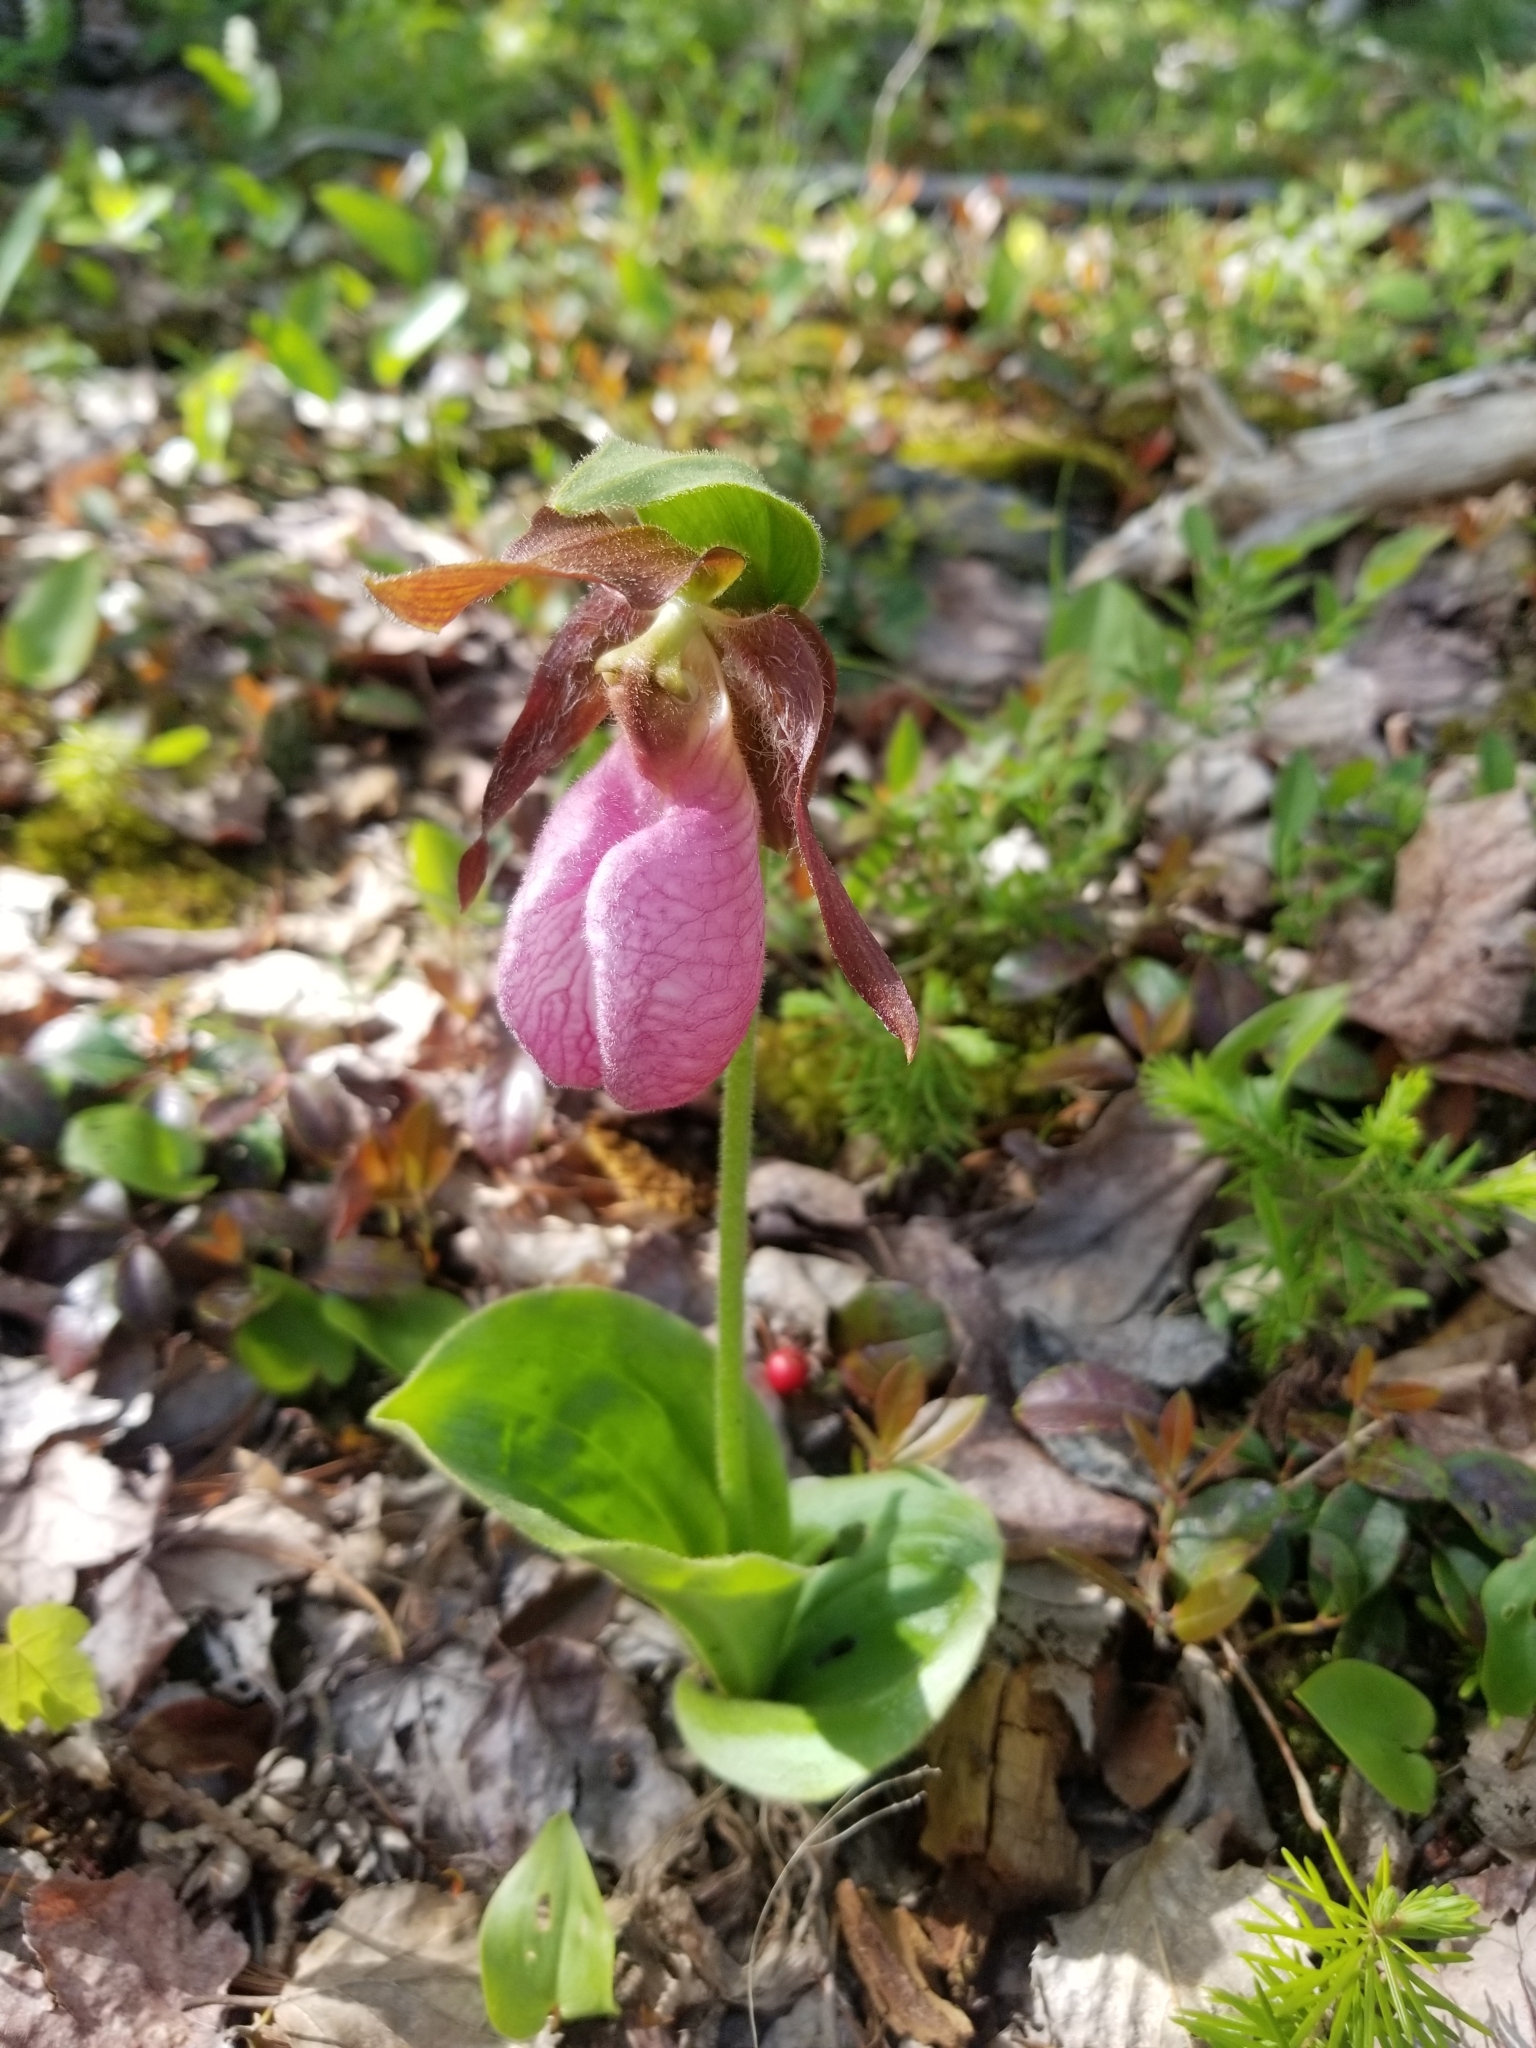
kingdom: Plantae
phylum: Tracheophyta
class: Liliopsida
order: Asparagales
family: Orchidaceae
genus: Cypripedium
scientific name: Cypripedium acaule
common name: Pink lady's-slipper
